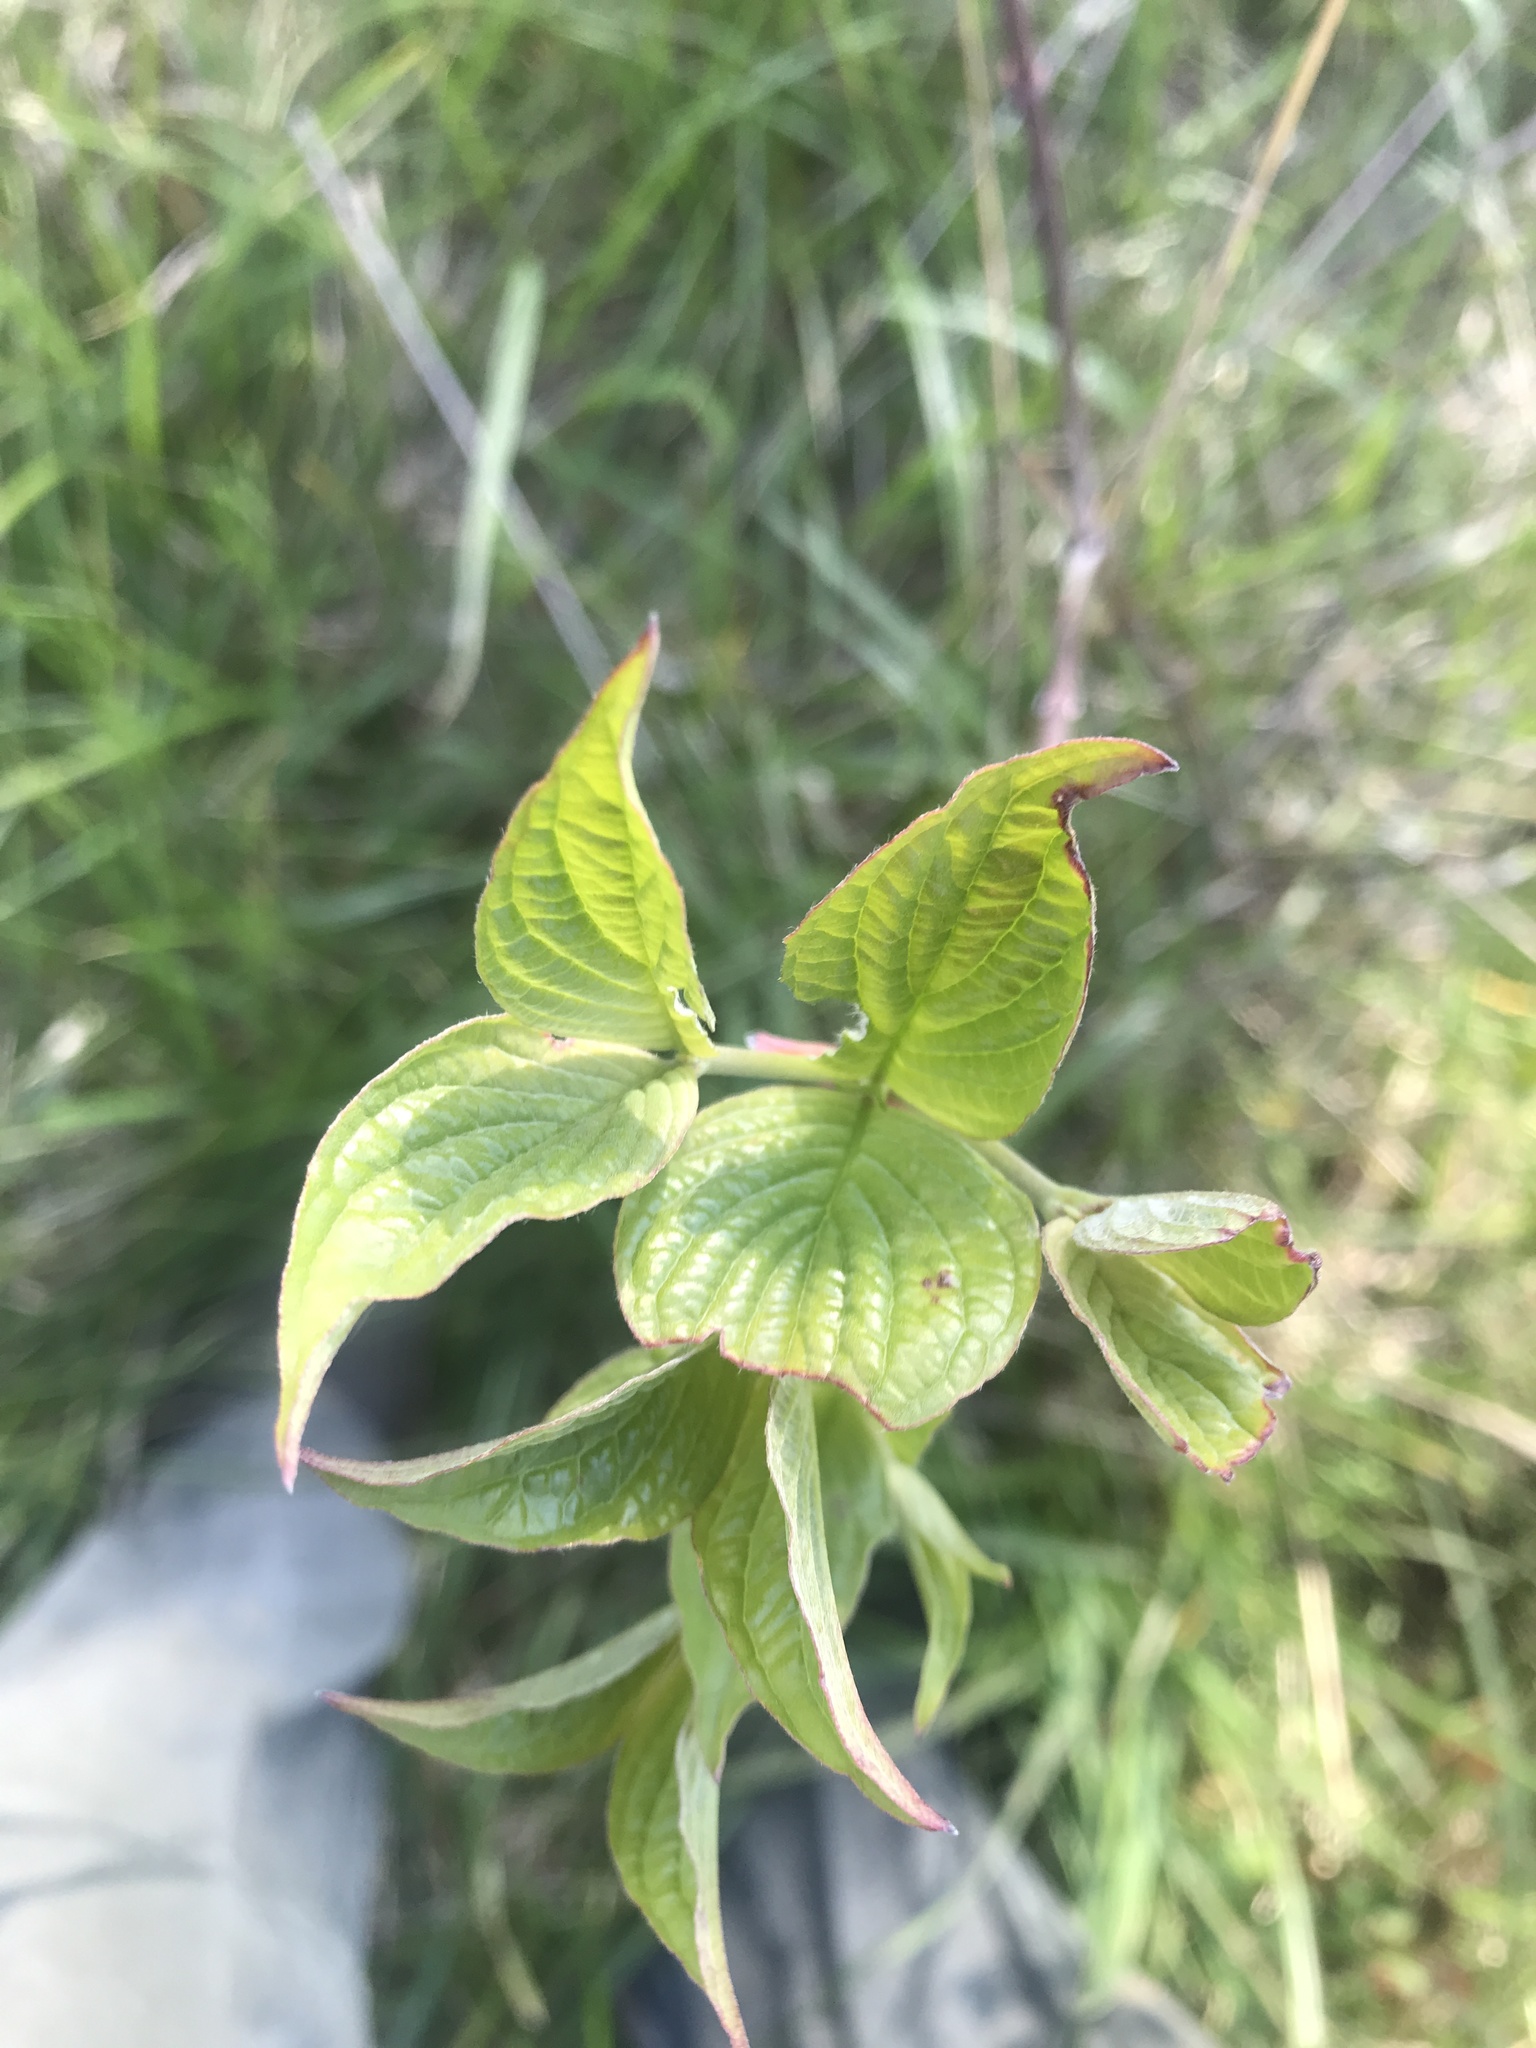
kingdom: Plantae
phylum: Tracheophyta
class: Magnoliopsida
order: Cornales
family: Cornaceae
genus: Cornus
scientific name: Cornus florida
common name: Flowering dogwood
